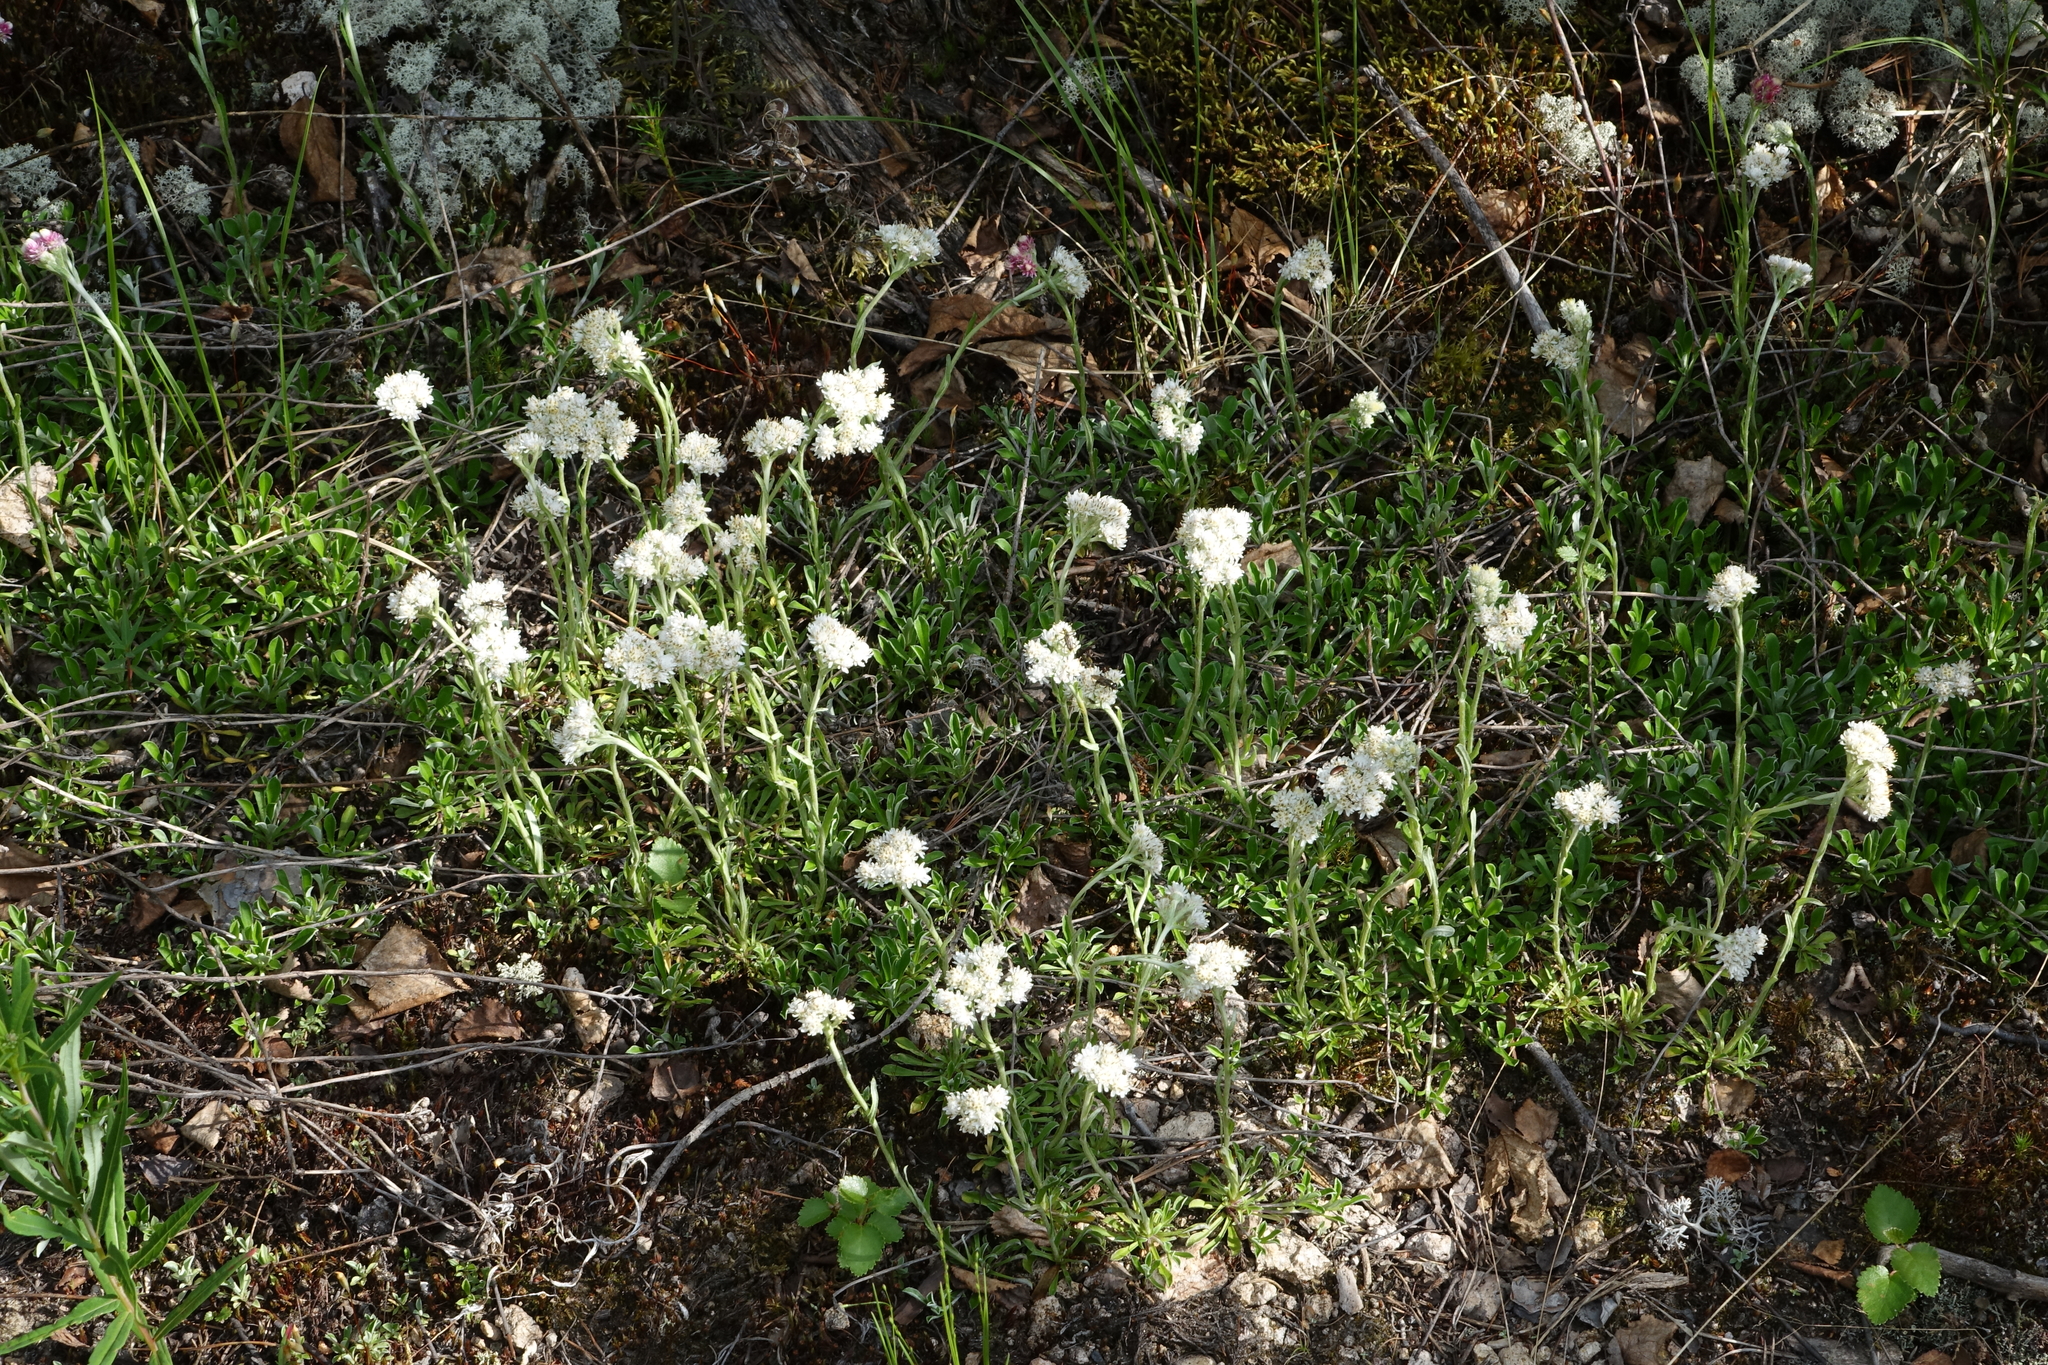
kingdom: Plantae
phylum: Tracheophyta
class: Magnoliopsida
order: Asterales
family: Asteraceae
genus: Antennaria
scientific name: Antennaria dioica
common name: Mountain everlasting
